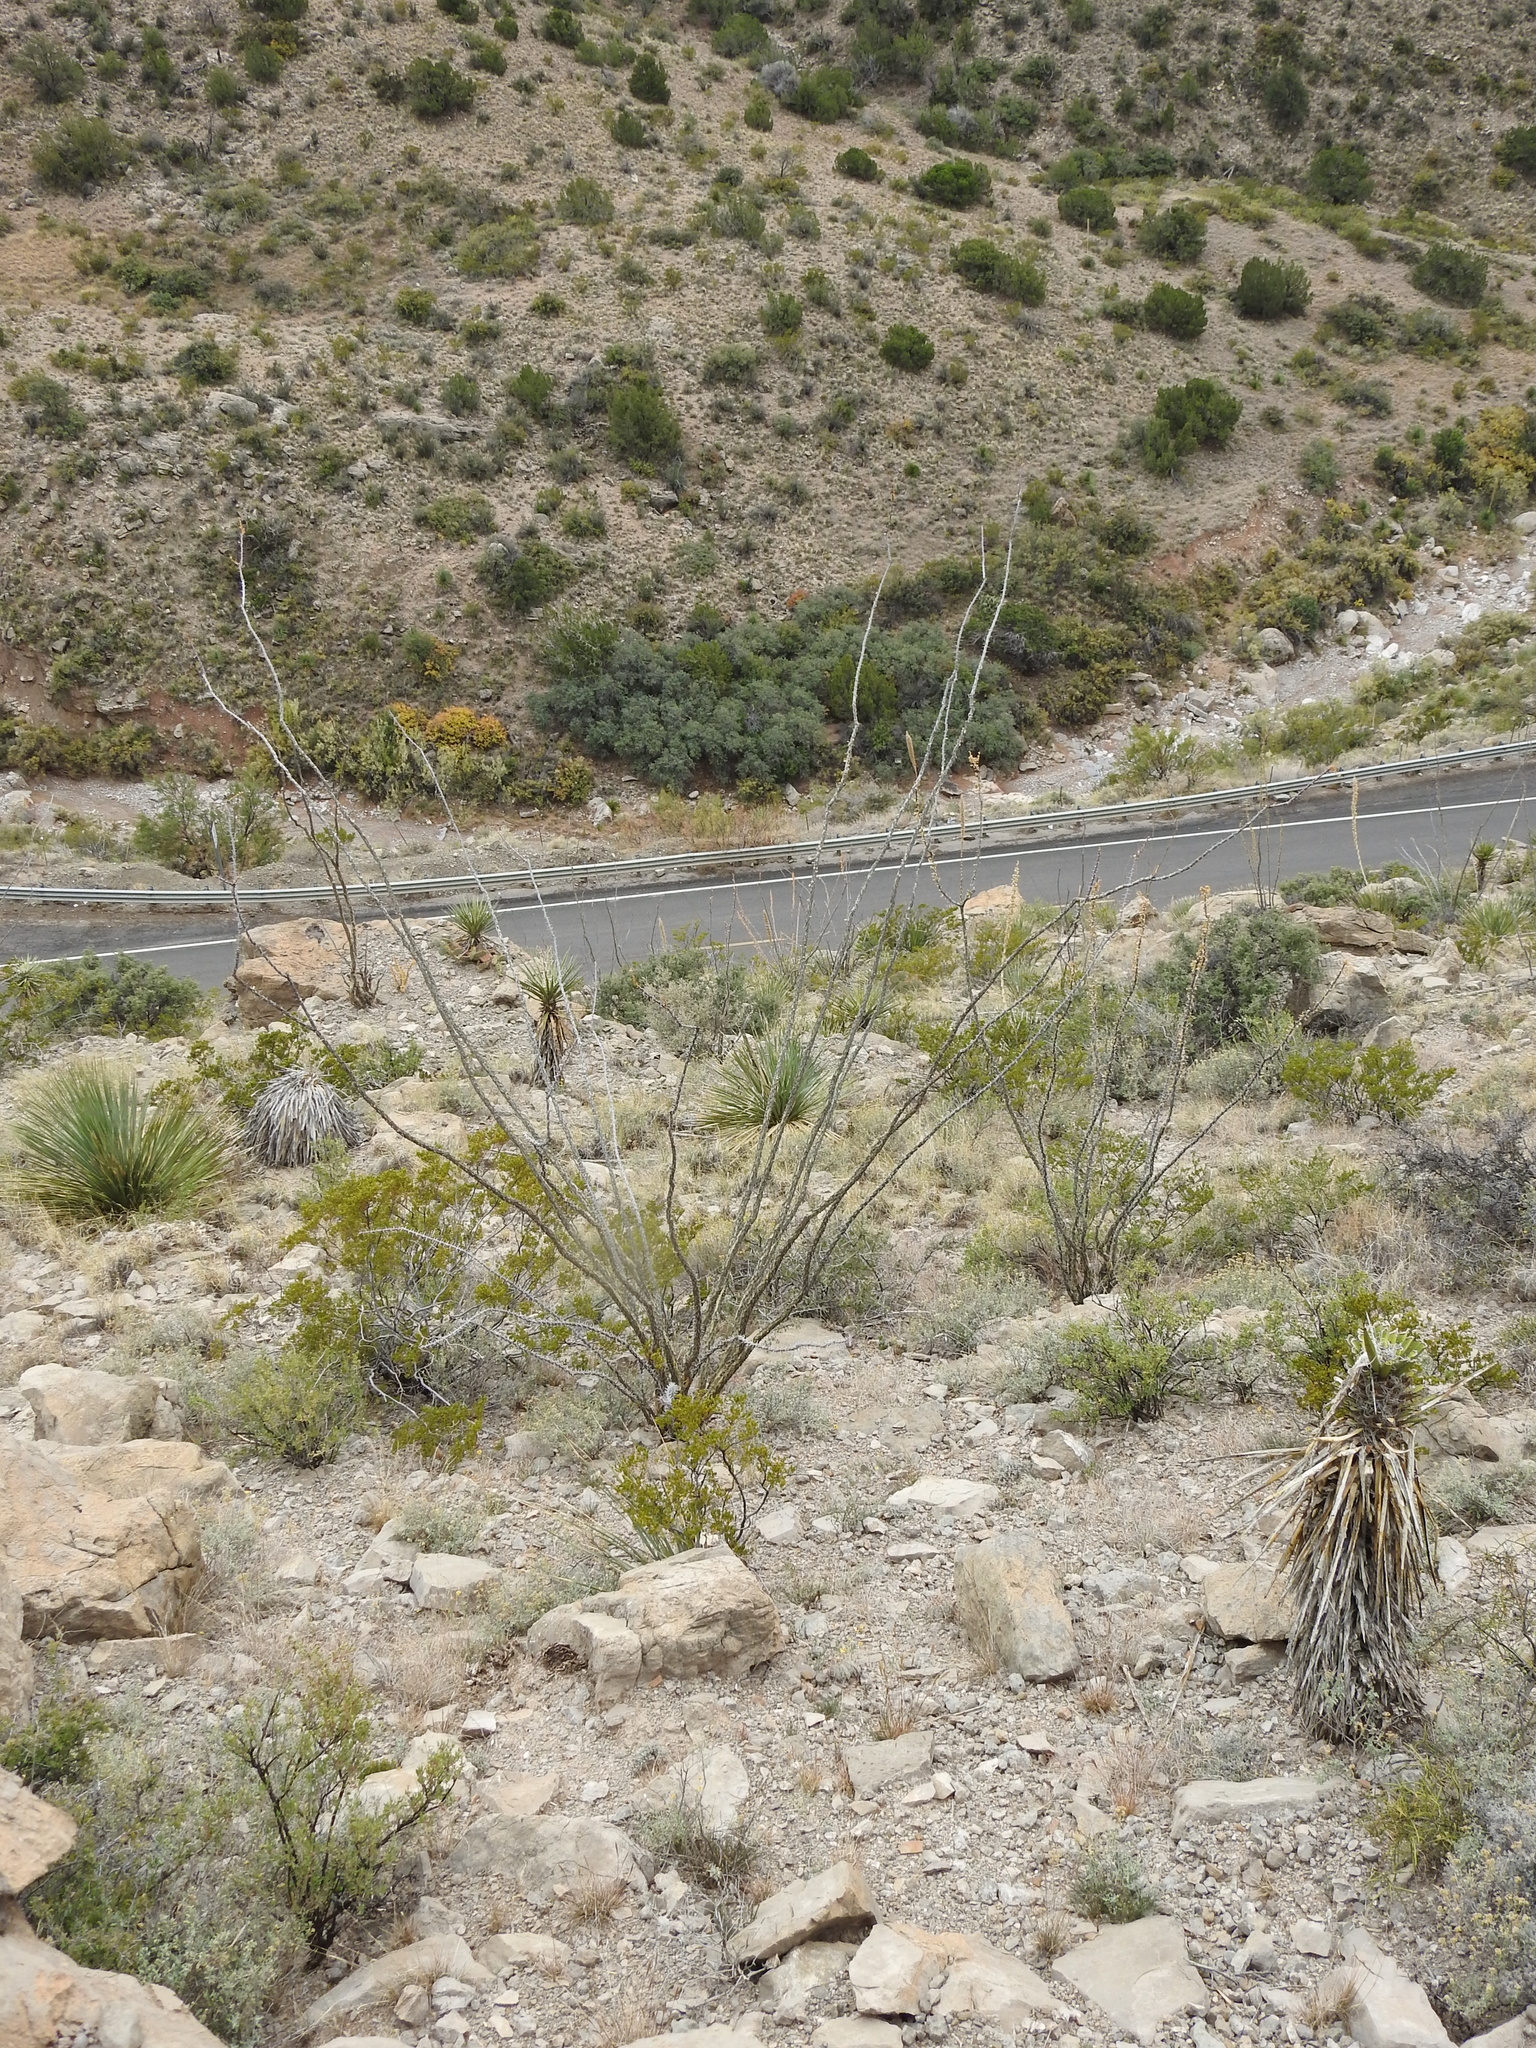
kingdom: Plantae
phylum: Tracheophyta
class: Magnoliopsida
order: Ericales
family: Fouquieriaceae
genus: Fouquieria
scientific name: Fouquieria splendens
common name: Vine-cactus
